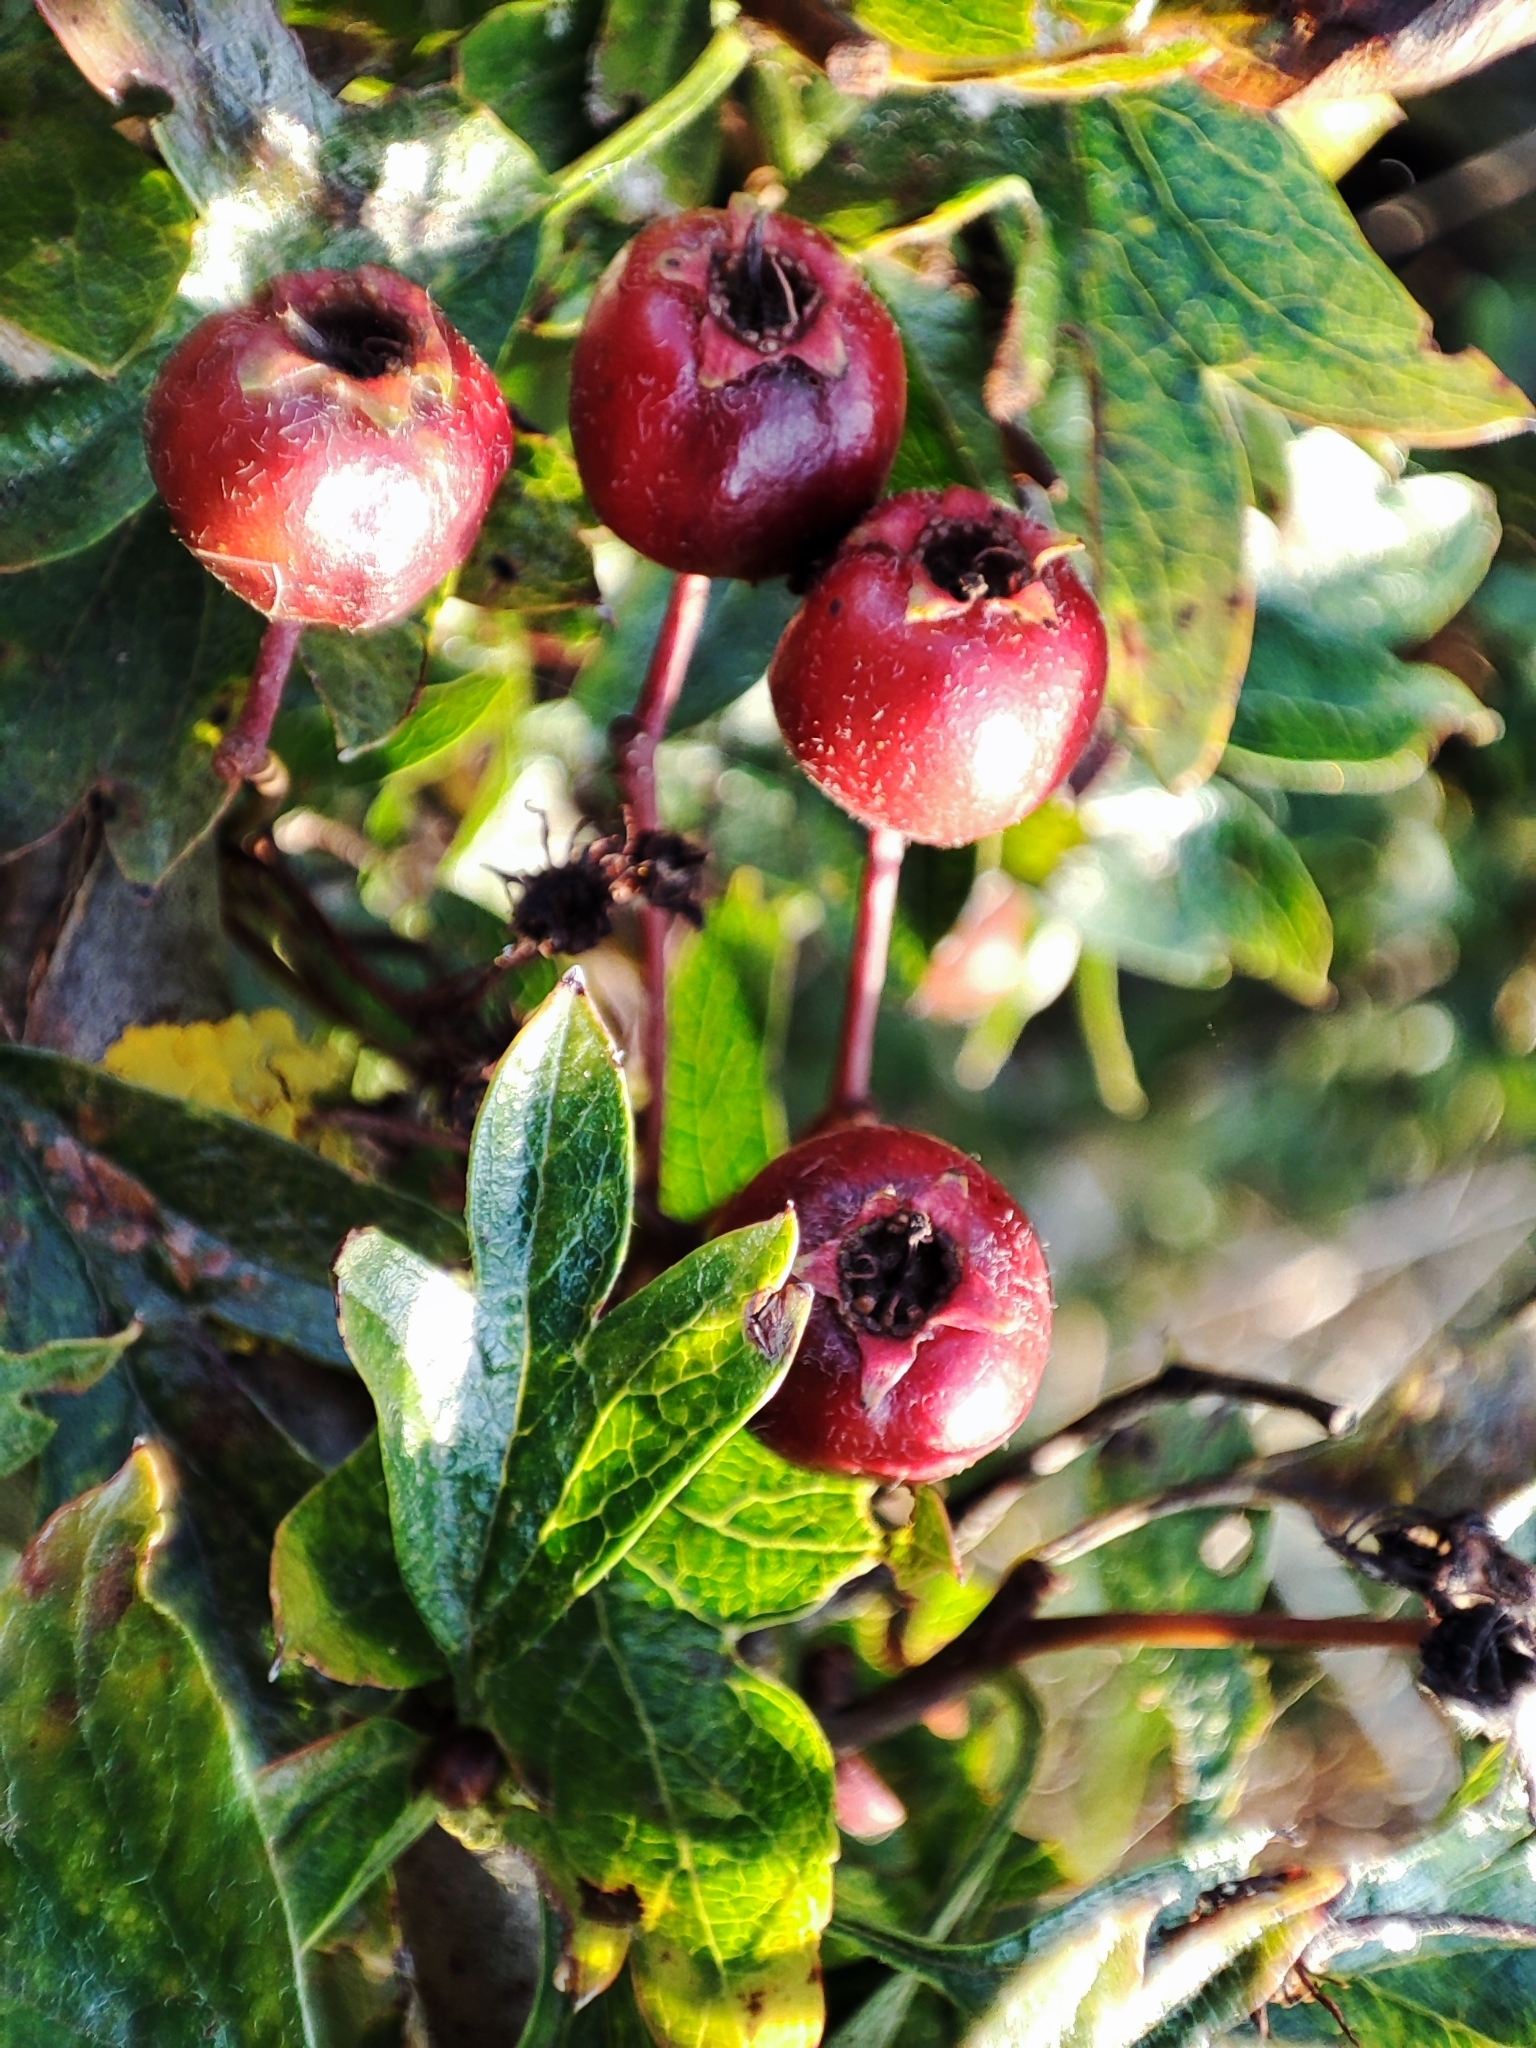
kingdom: Plantae
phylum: Tracheophyta
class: Magnoliopsida
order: Rosales
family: Rosaceae
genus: Crataegus
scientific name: Crataegus monogyna
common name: Hawthorn
